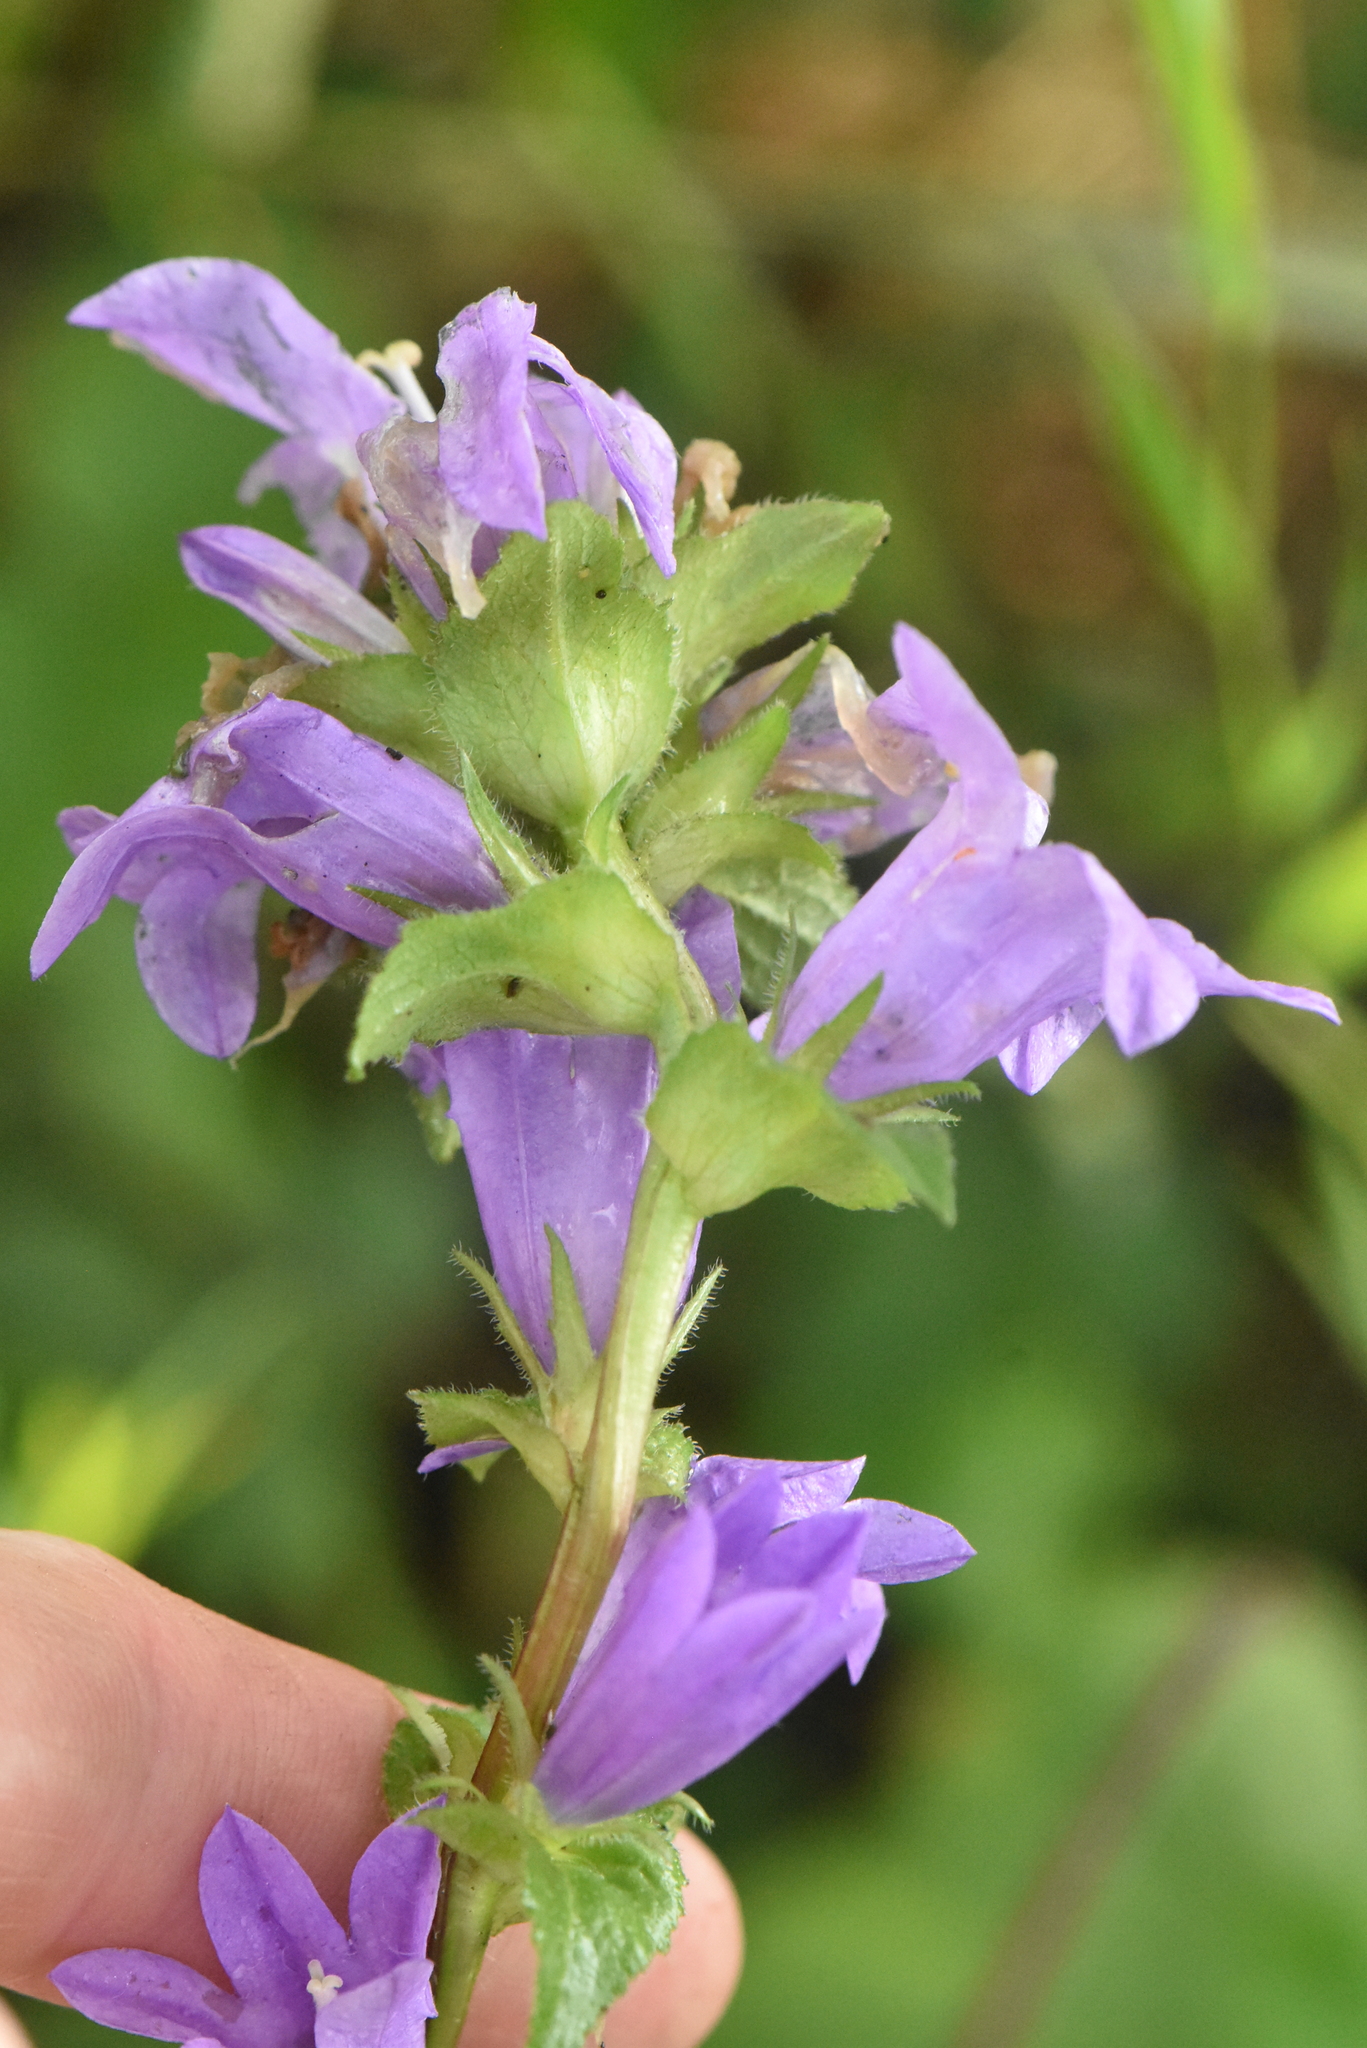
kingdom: Plantae
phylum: Tracheophyta
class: Magnoliopsida
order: Asterales
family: Campanulaceae
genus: Campanula
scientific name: Campanula glomerata
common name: Clustered bellflower
